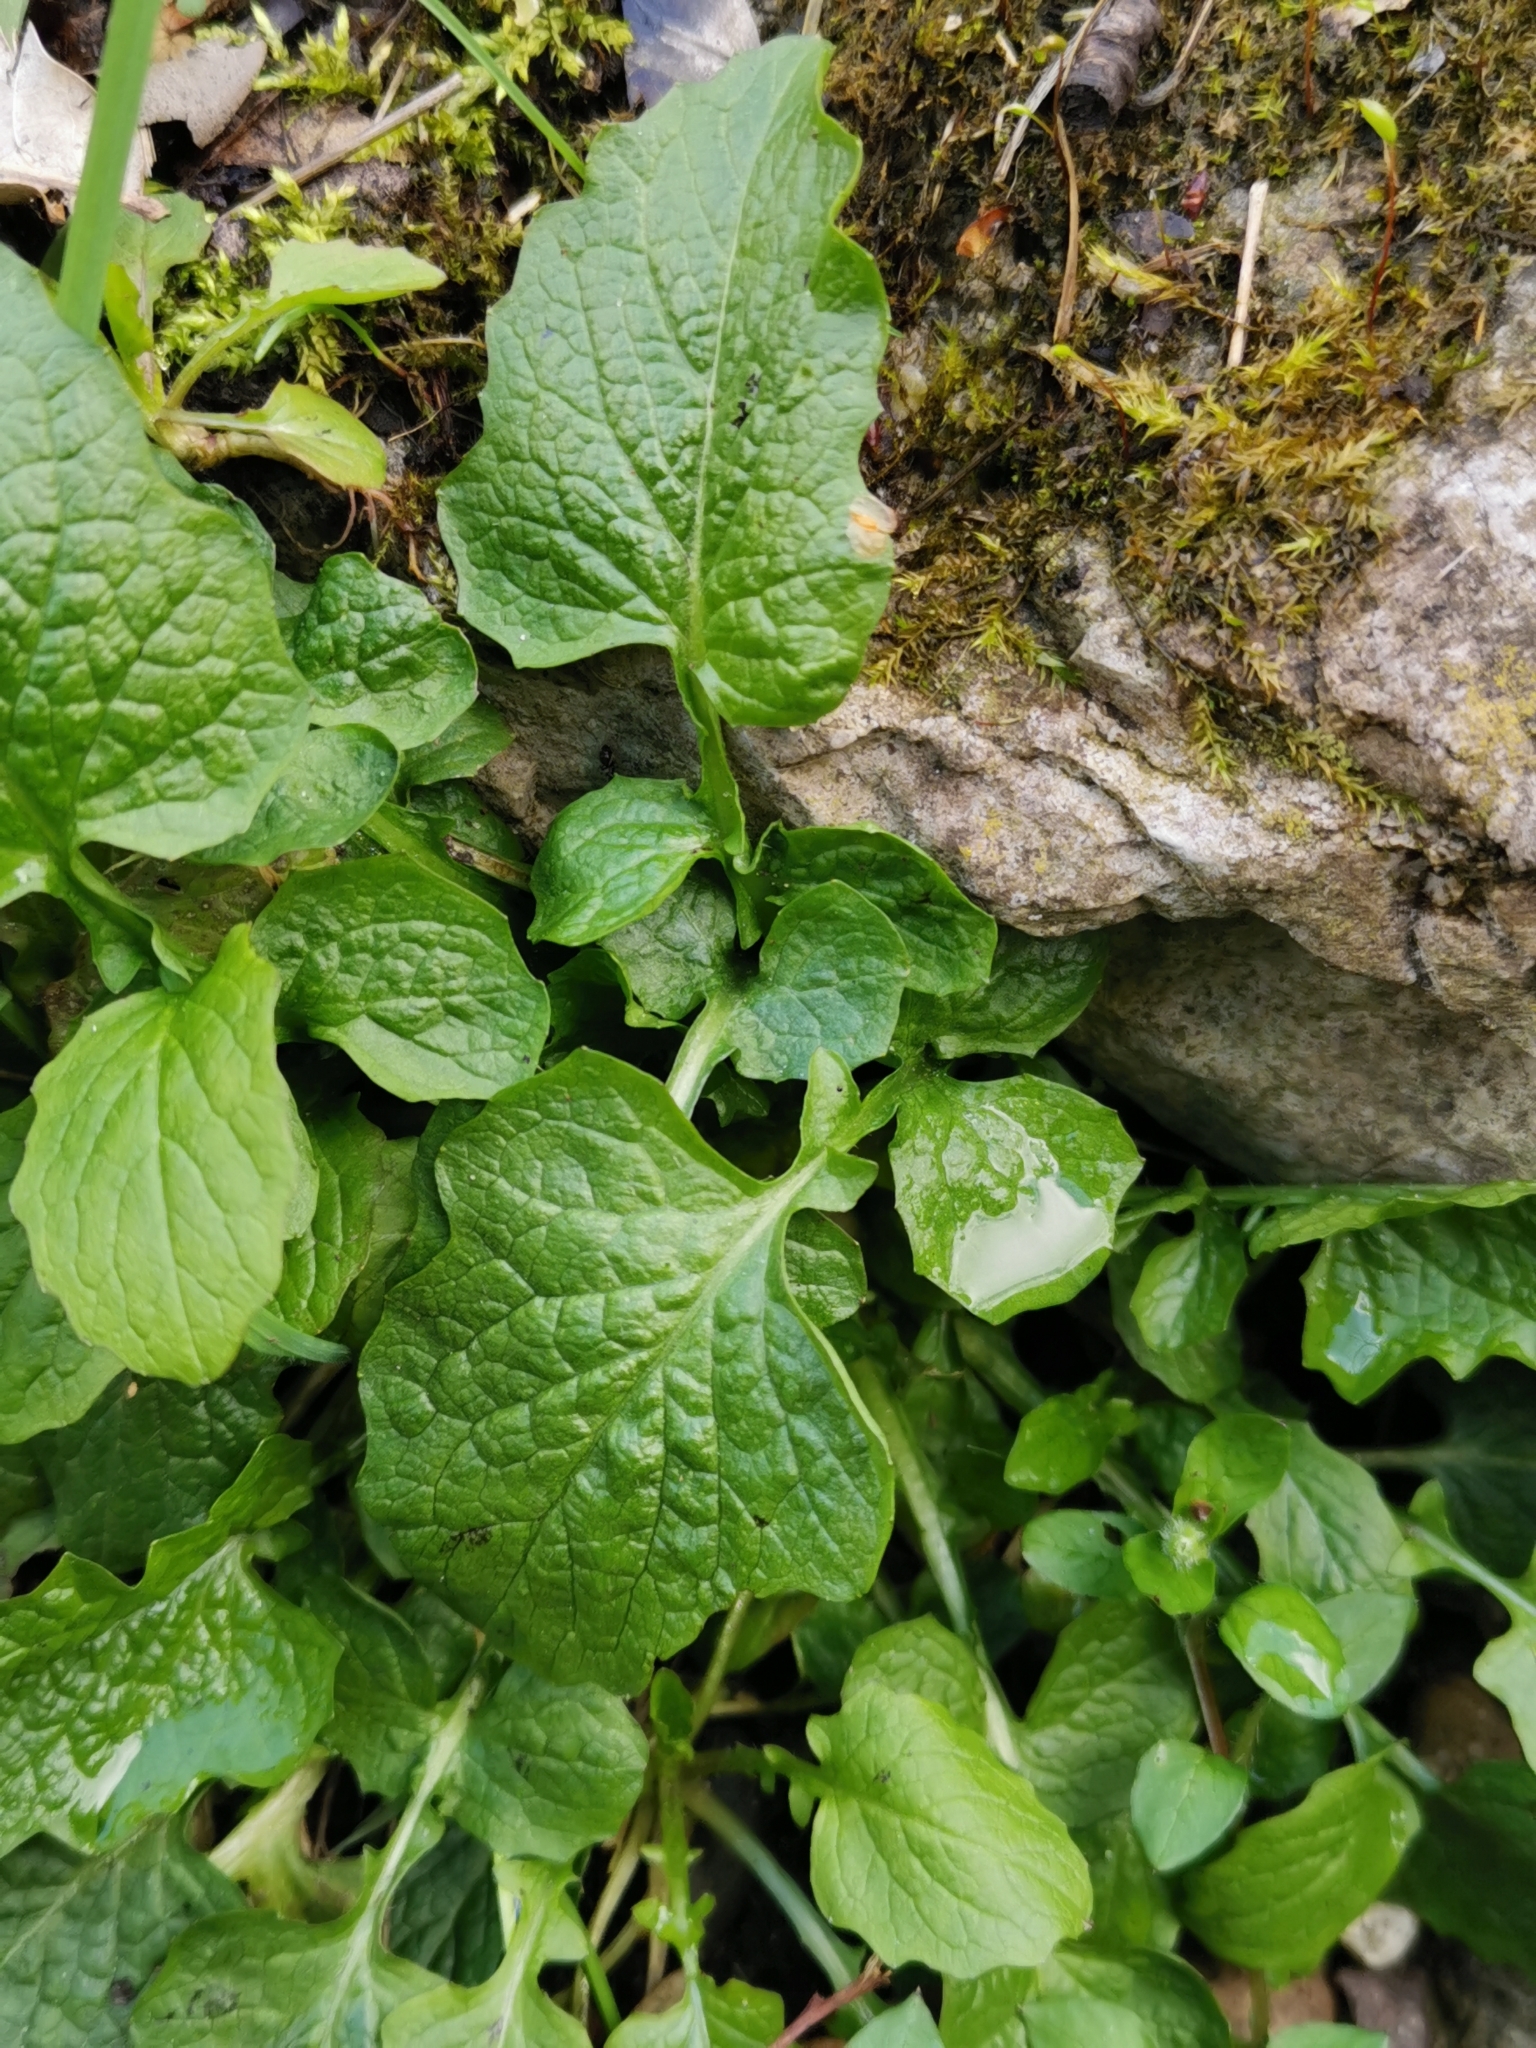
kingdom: Plantae
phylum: Tracheophyta
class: Magnoliopsida
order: Asterales
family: Asteraceae
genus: Lapsana
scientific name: Lapsana communis
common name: Nipplewort
